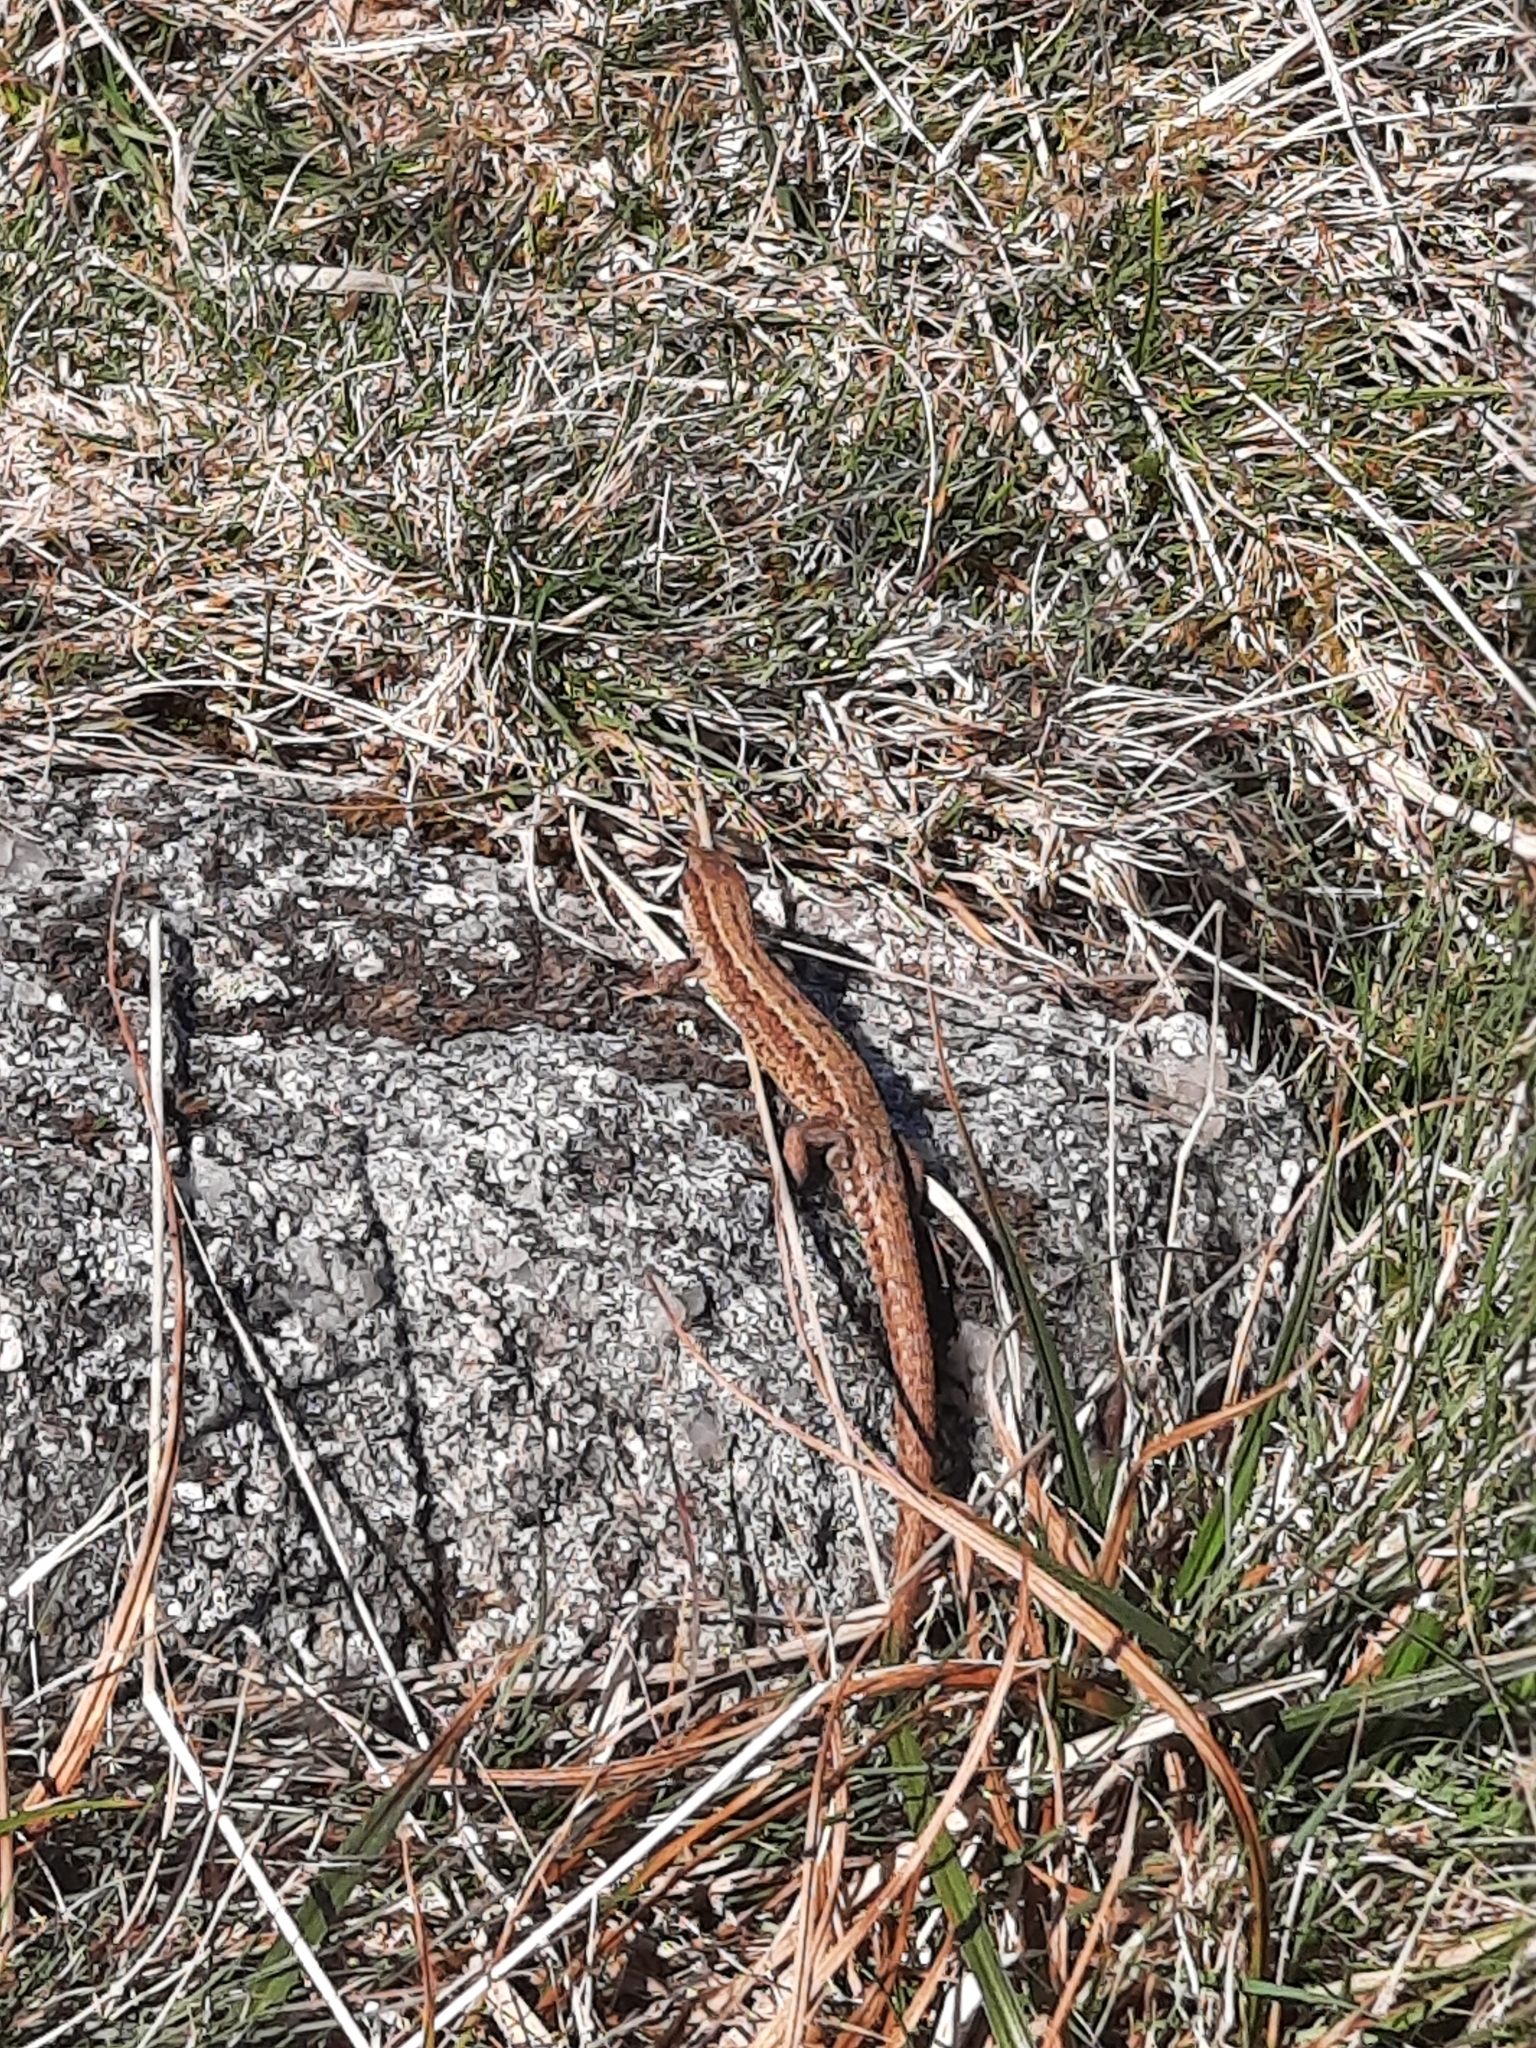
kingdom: Animalia
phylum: Chordata
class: Squamata
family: Lacertidae
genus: Zootoca
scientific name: Zootoca vivipara
